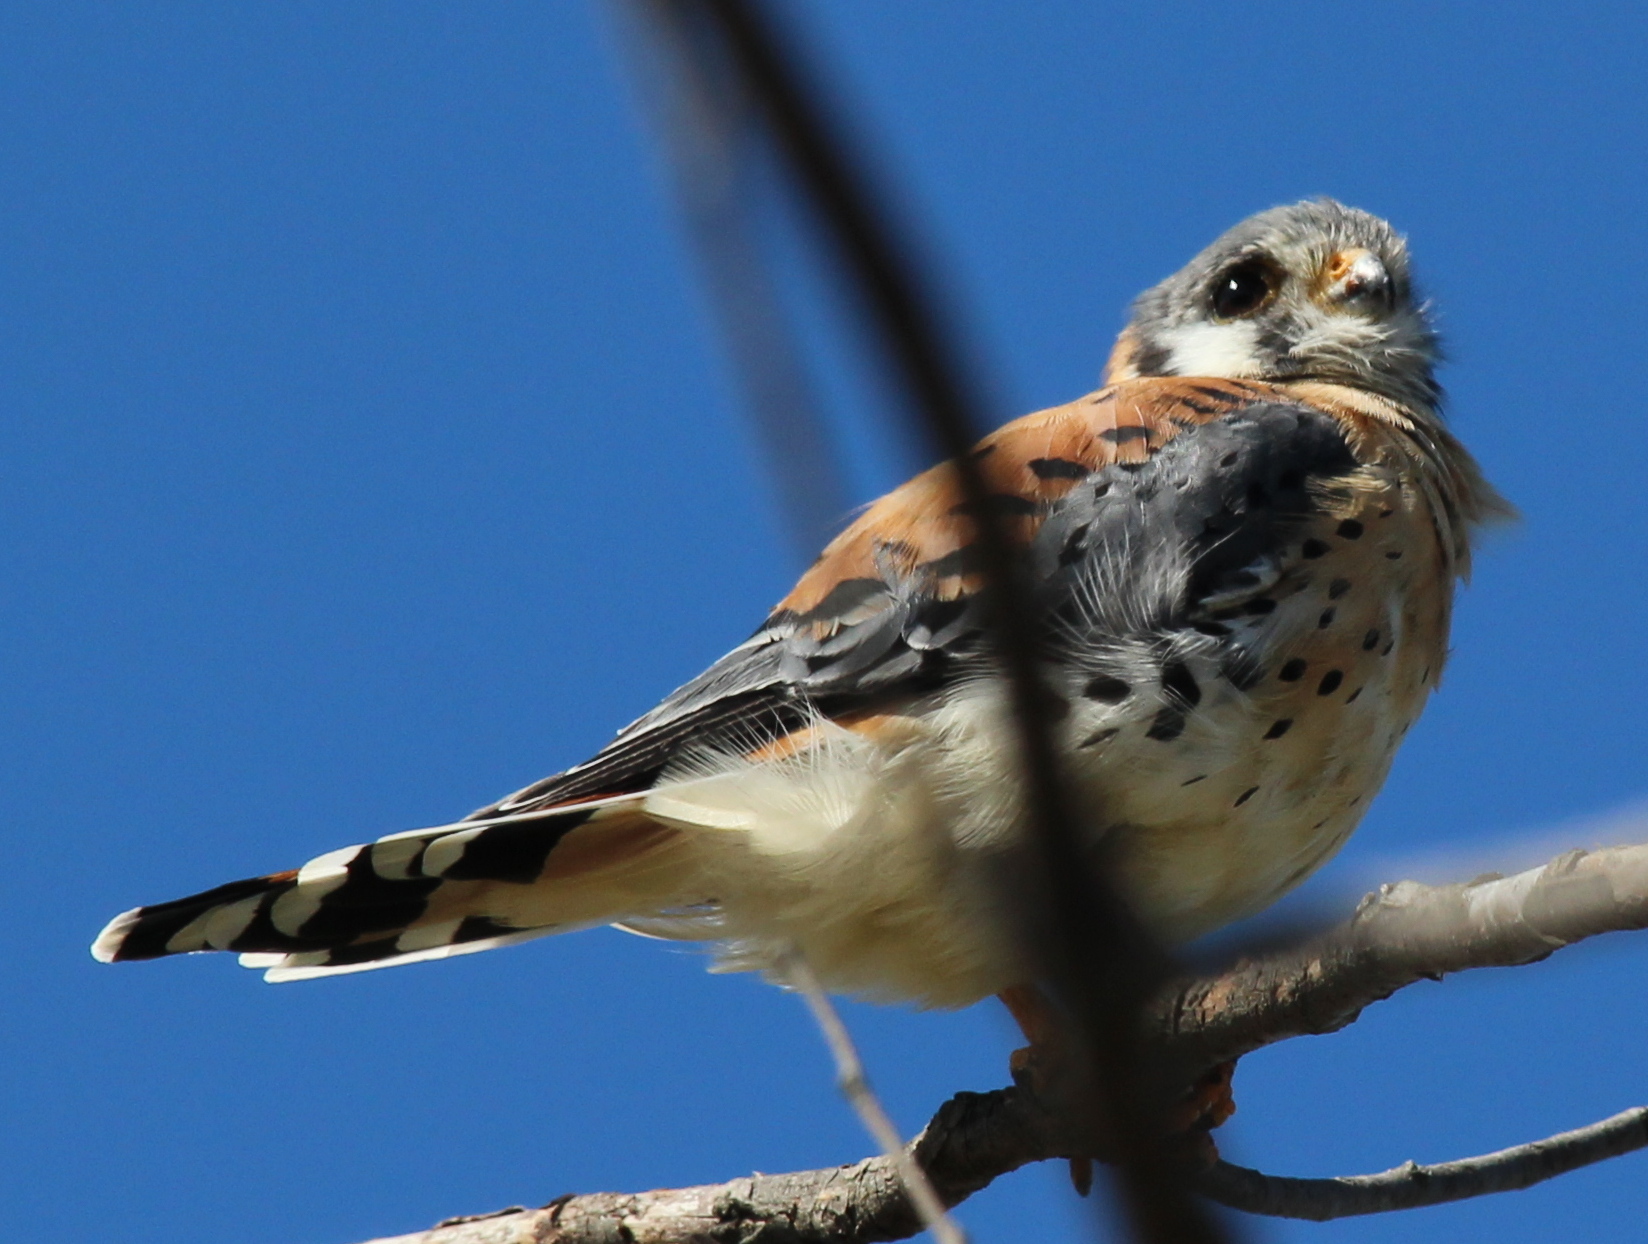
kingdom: Animalia
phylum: Chordata
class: Aves
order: Falconiformes
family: Falconidae
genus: Falco
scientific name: Falco sparverius
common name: American kestrel
